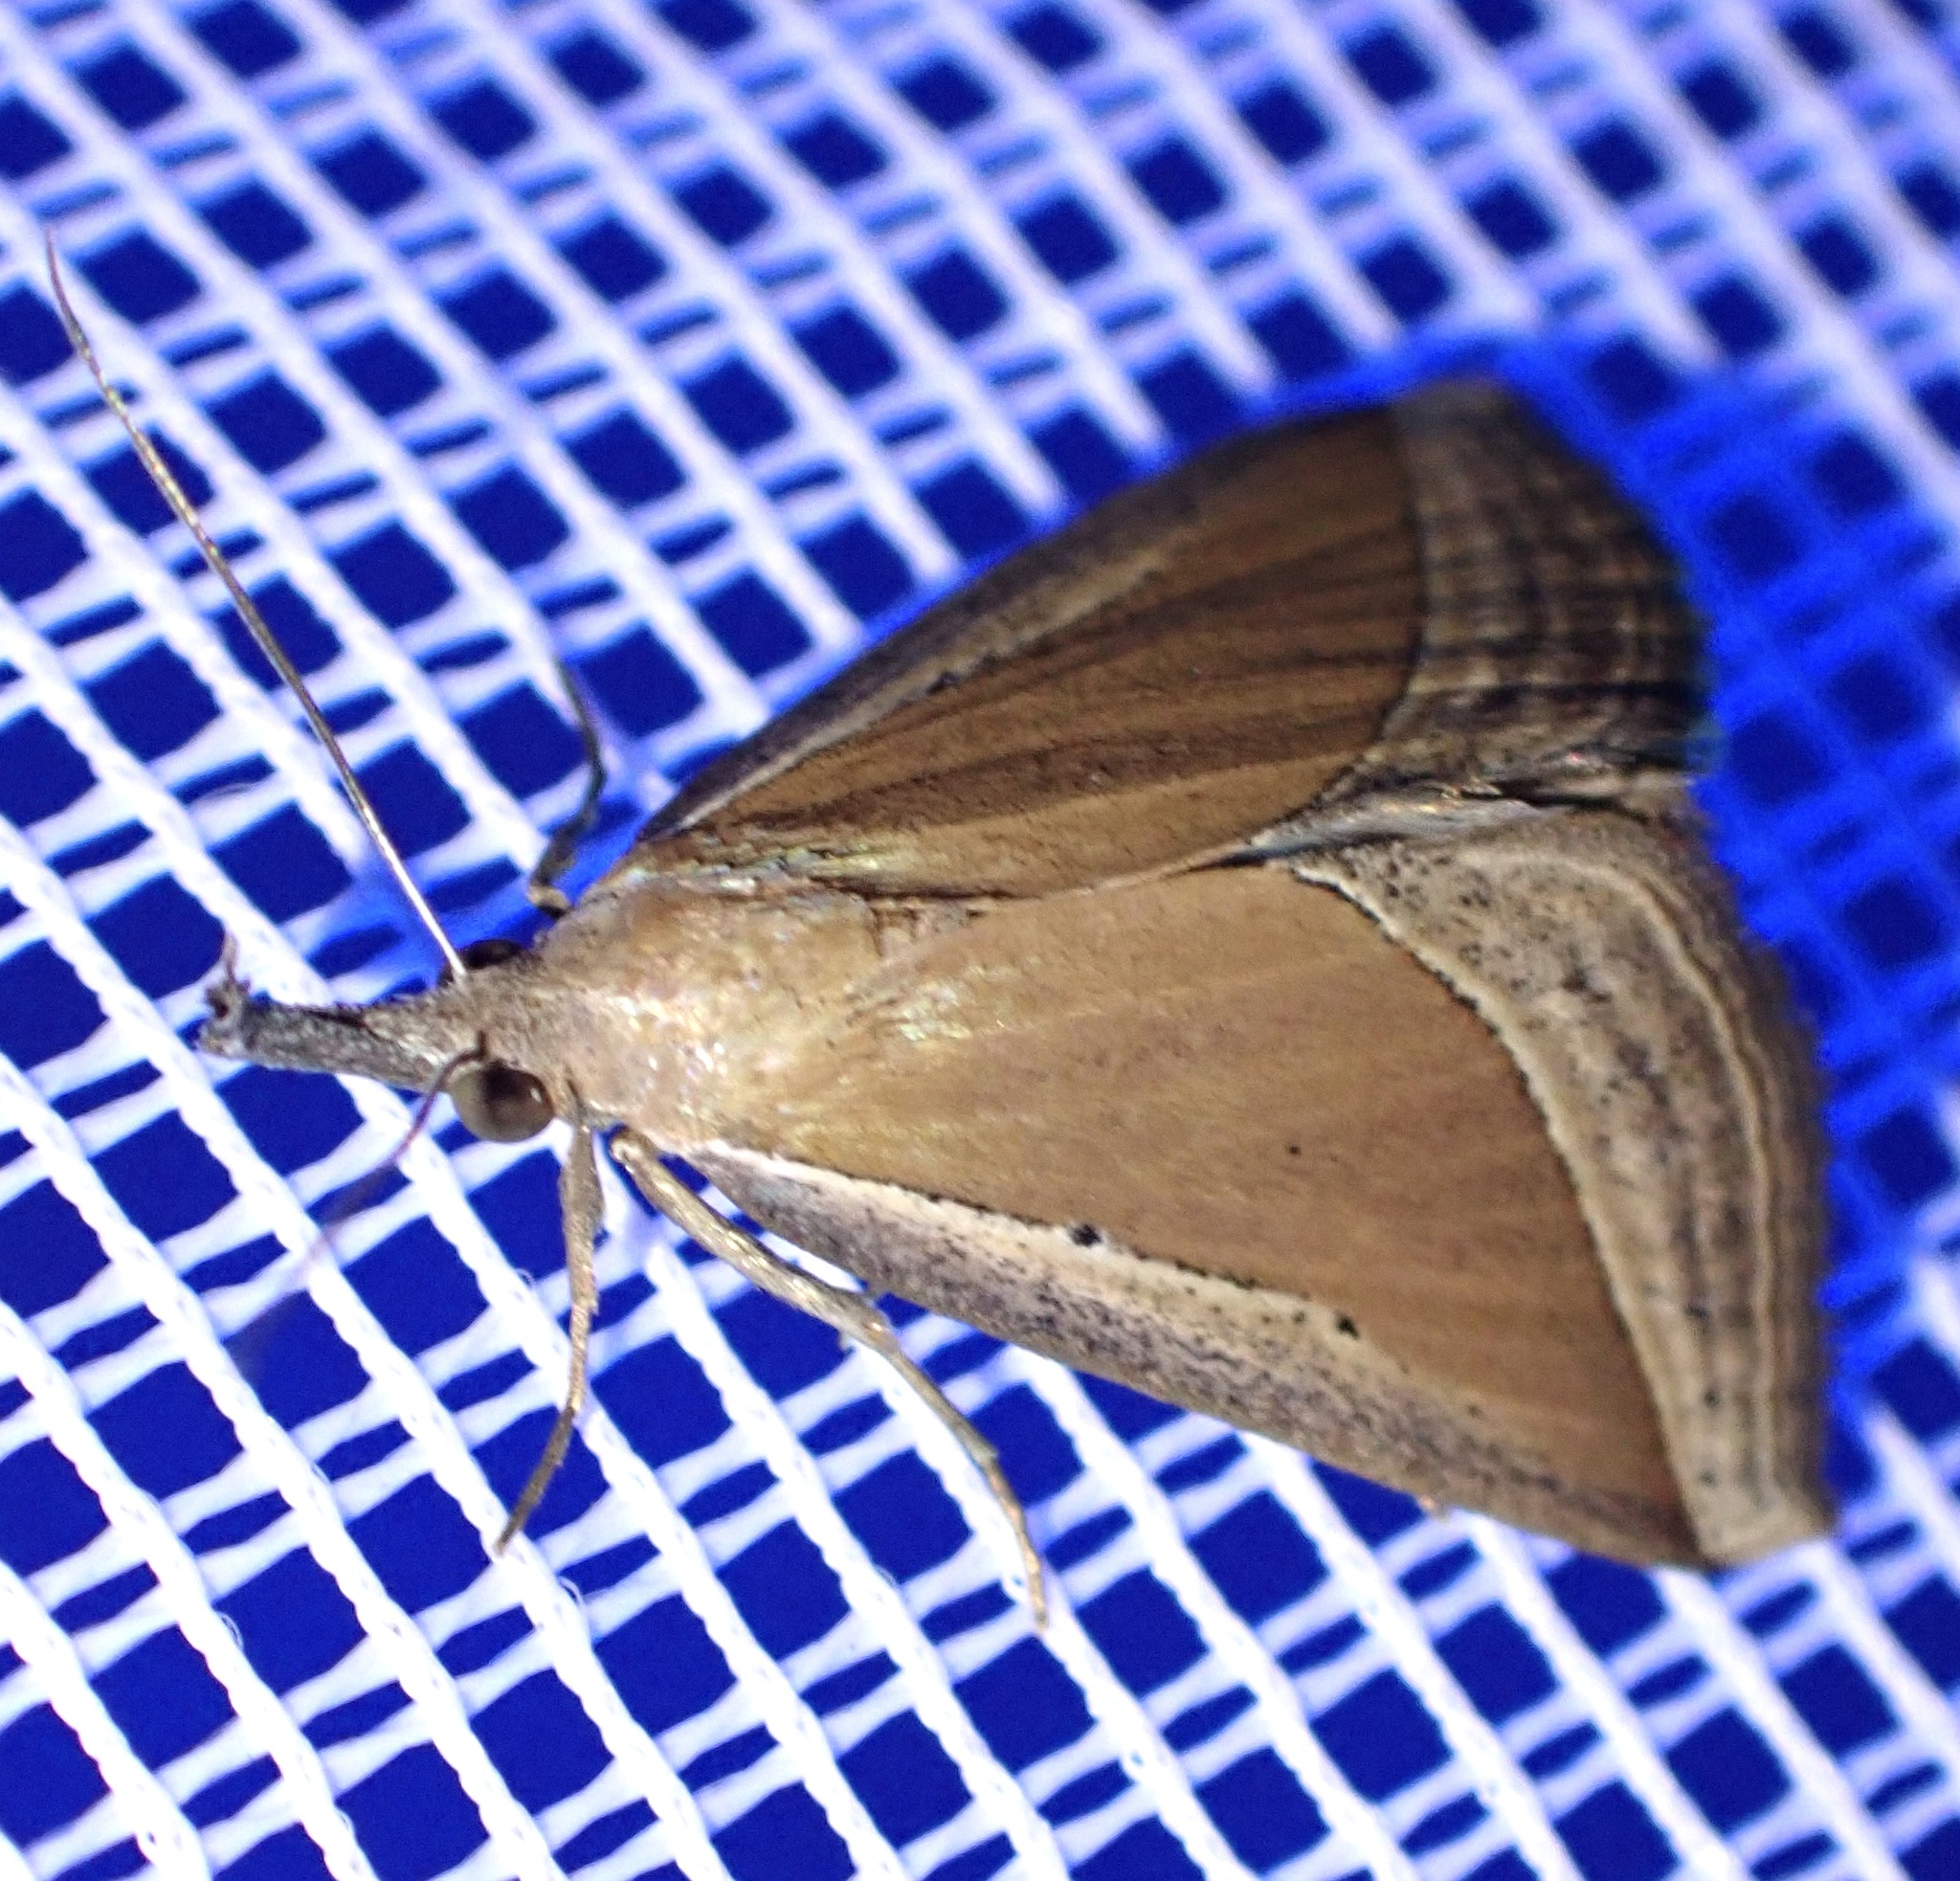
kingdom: Animalia
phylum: Arthropoda
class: Insecta
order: Lepidoptera
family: Erebidae
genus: Hypena
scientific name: Hypena conscitalis
